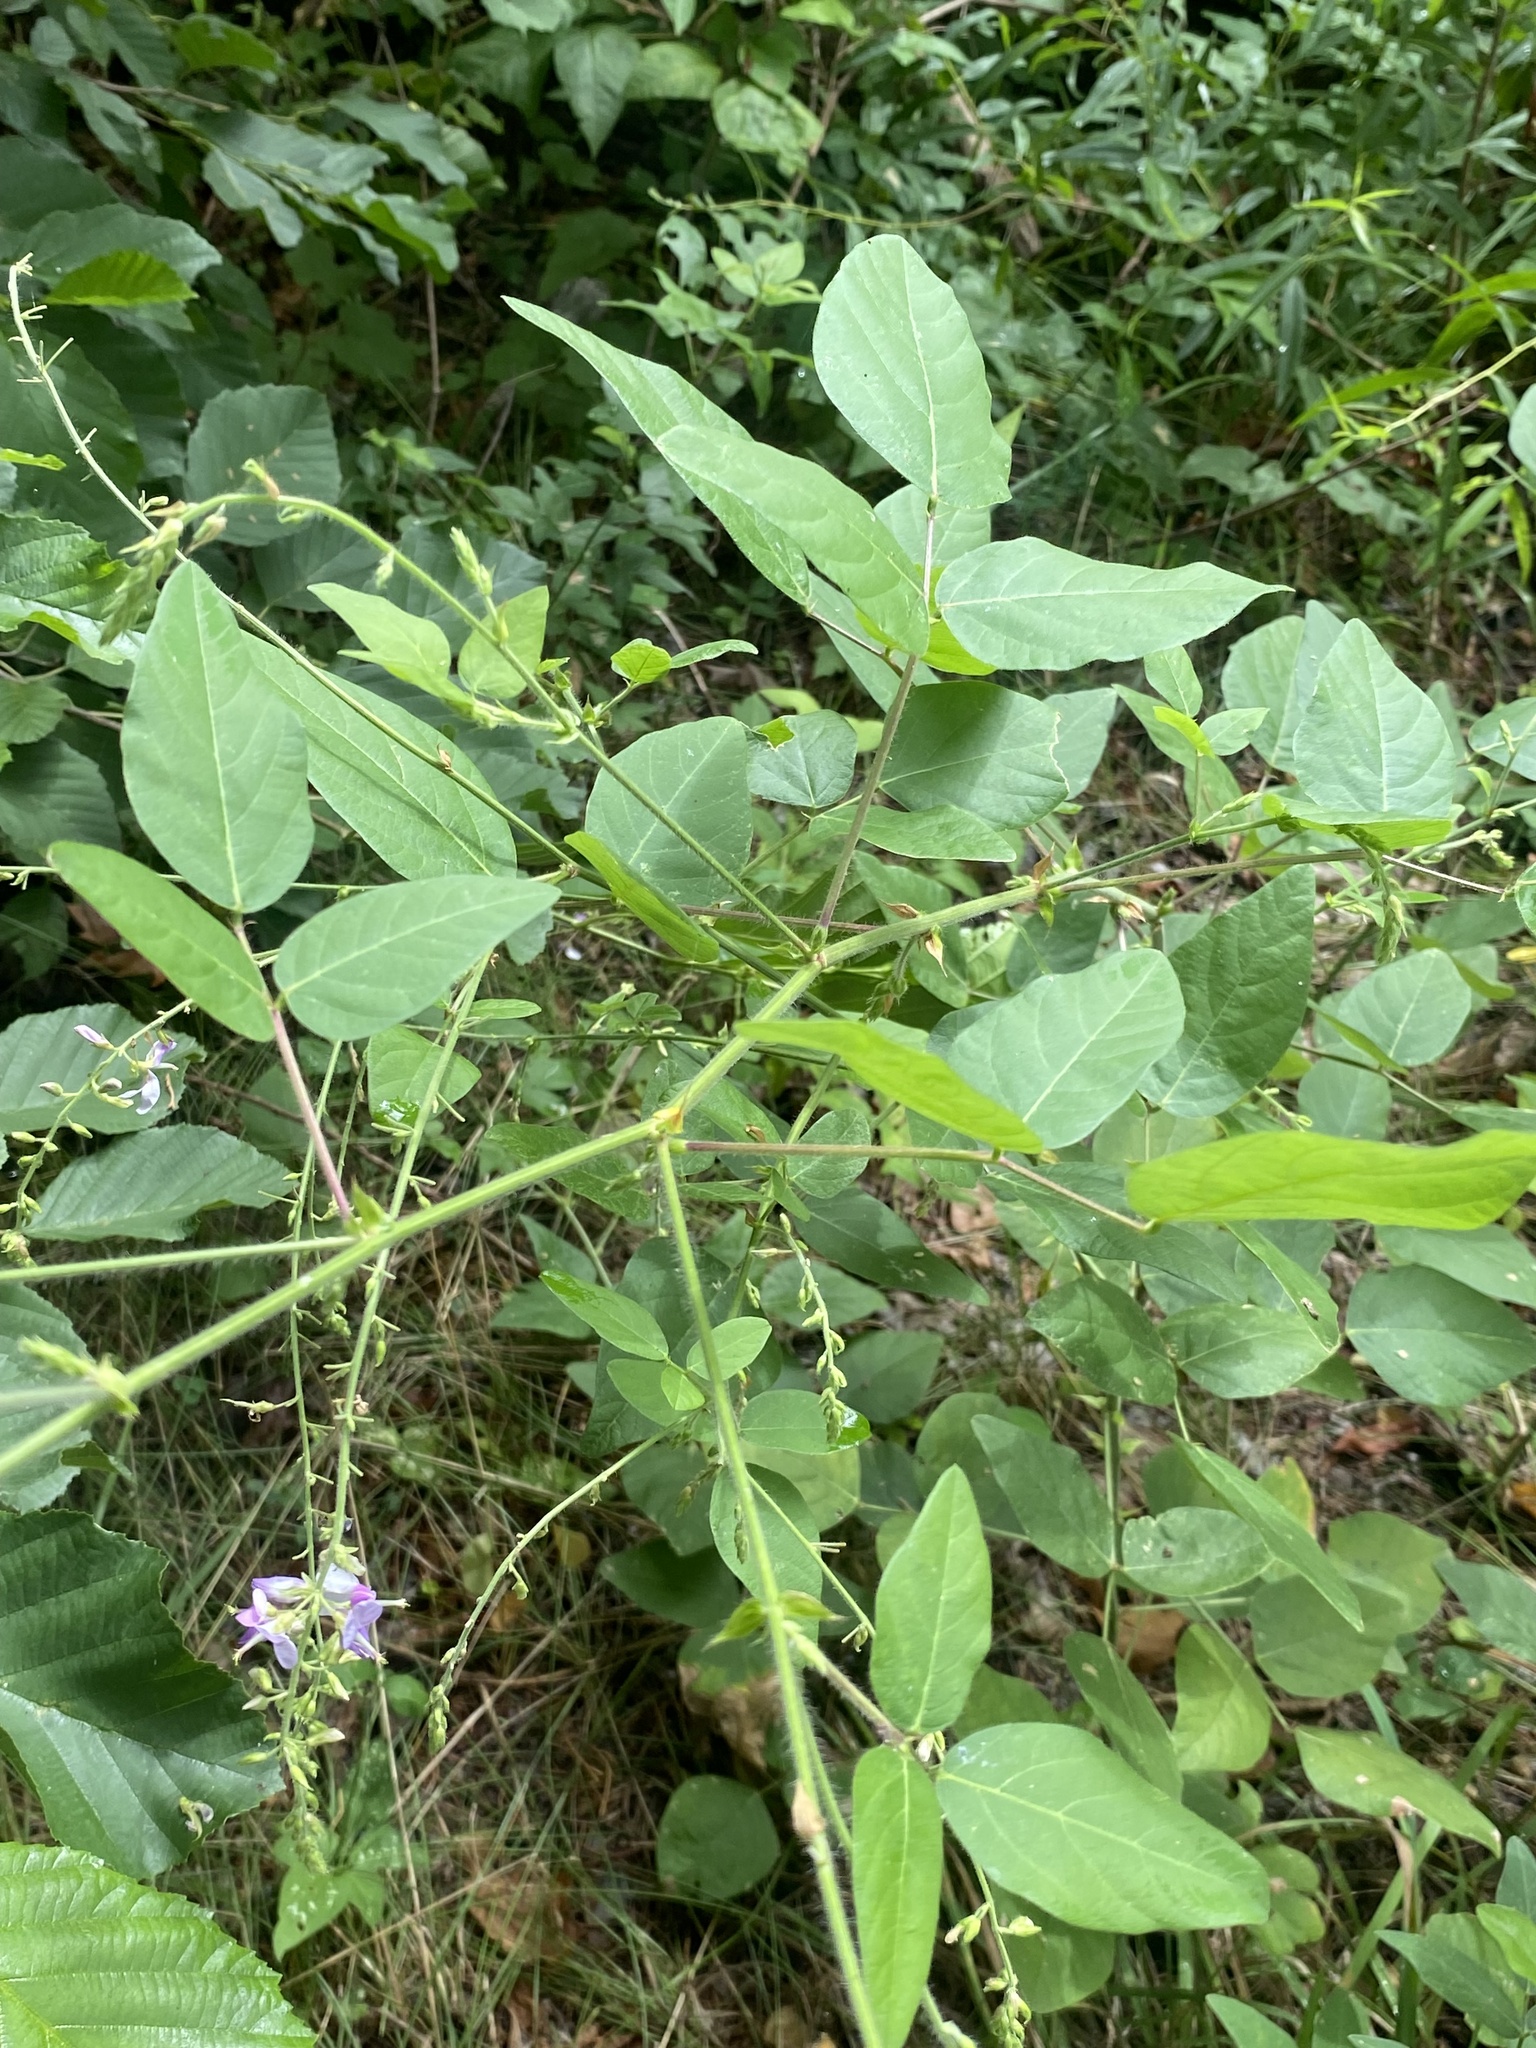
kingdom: Plantae
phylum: Tracheophyta
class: Magnoliopsida
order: Fabales
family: Fabaceae
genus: Desmodium
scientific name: Desmodium canescens
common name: Hoary tick-clover
